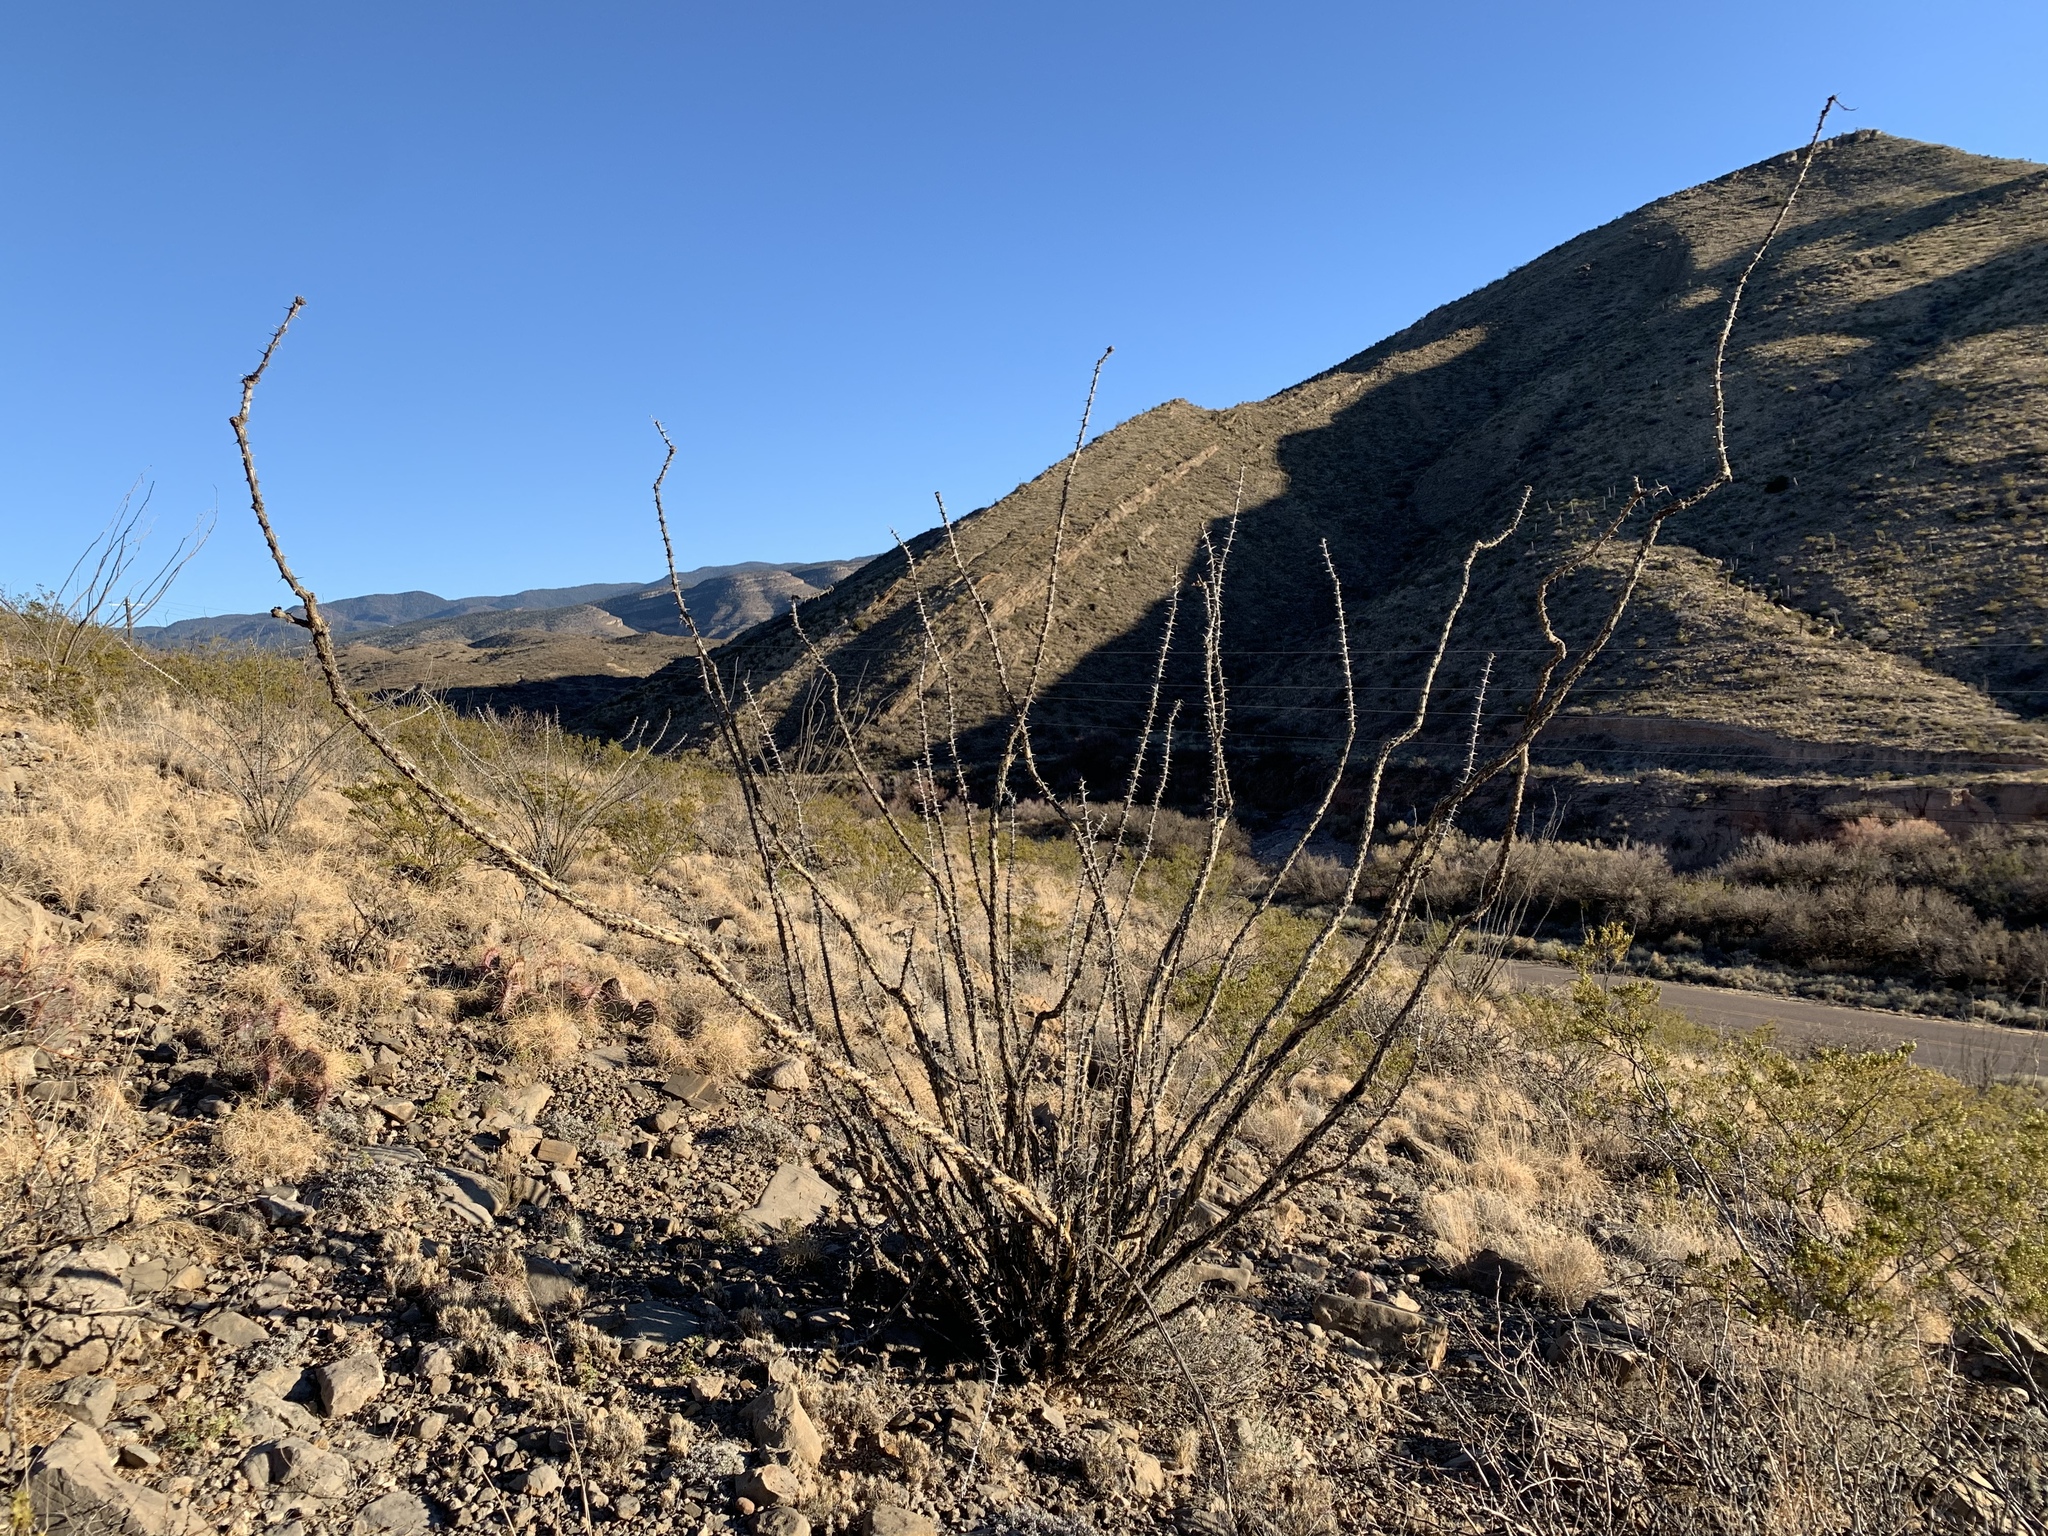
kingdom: Plantae
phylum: Tracheophyta
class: Magnoliopsida
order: Ericales
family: Fouquieriaceae
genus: Fouquieria
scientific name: Fouquieria splendens
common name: Vine-cactus
